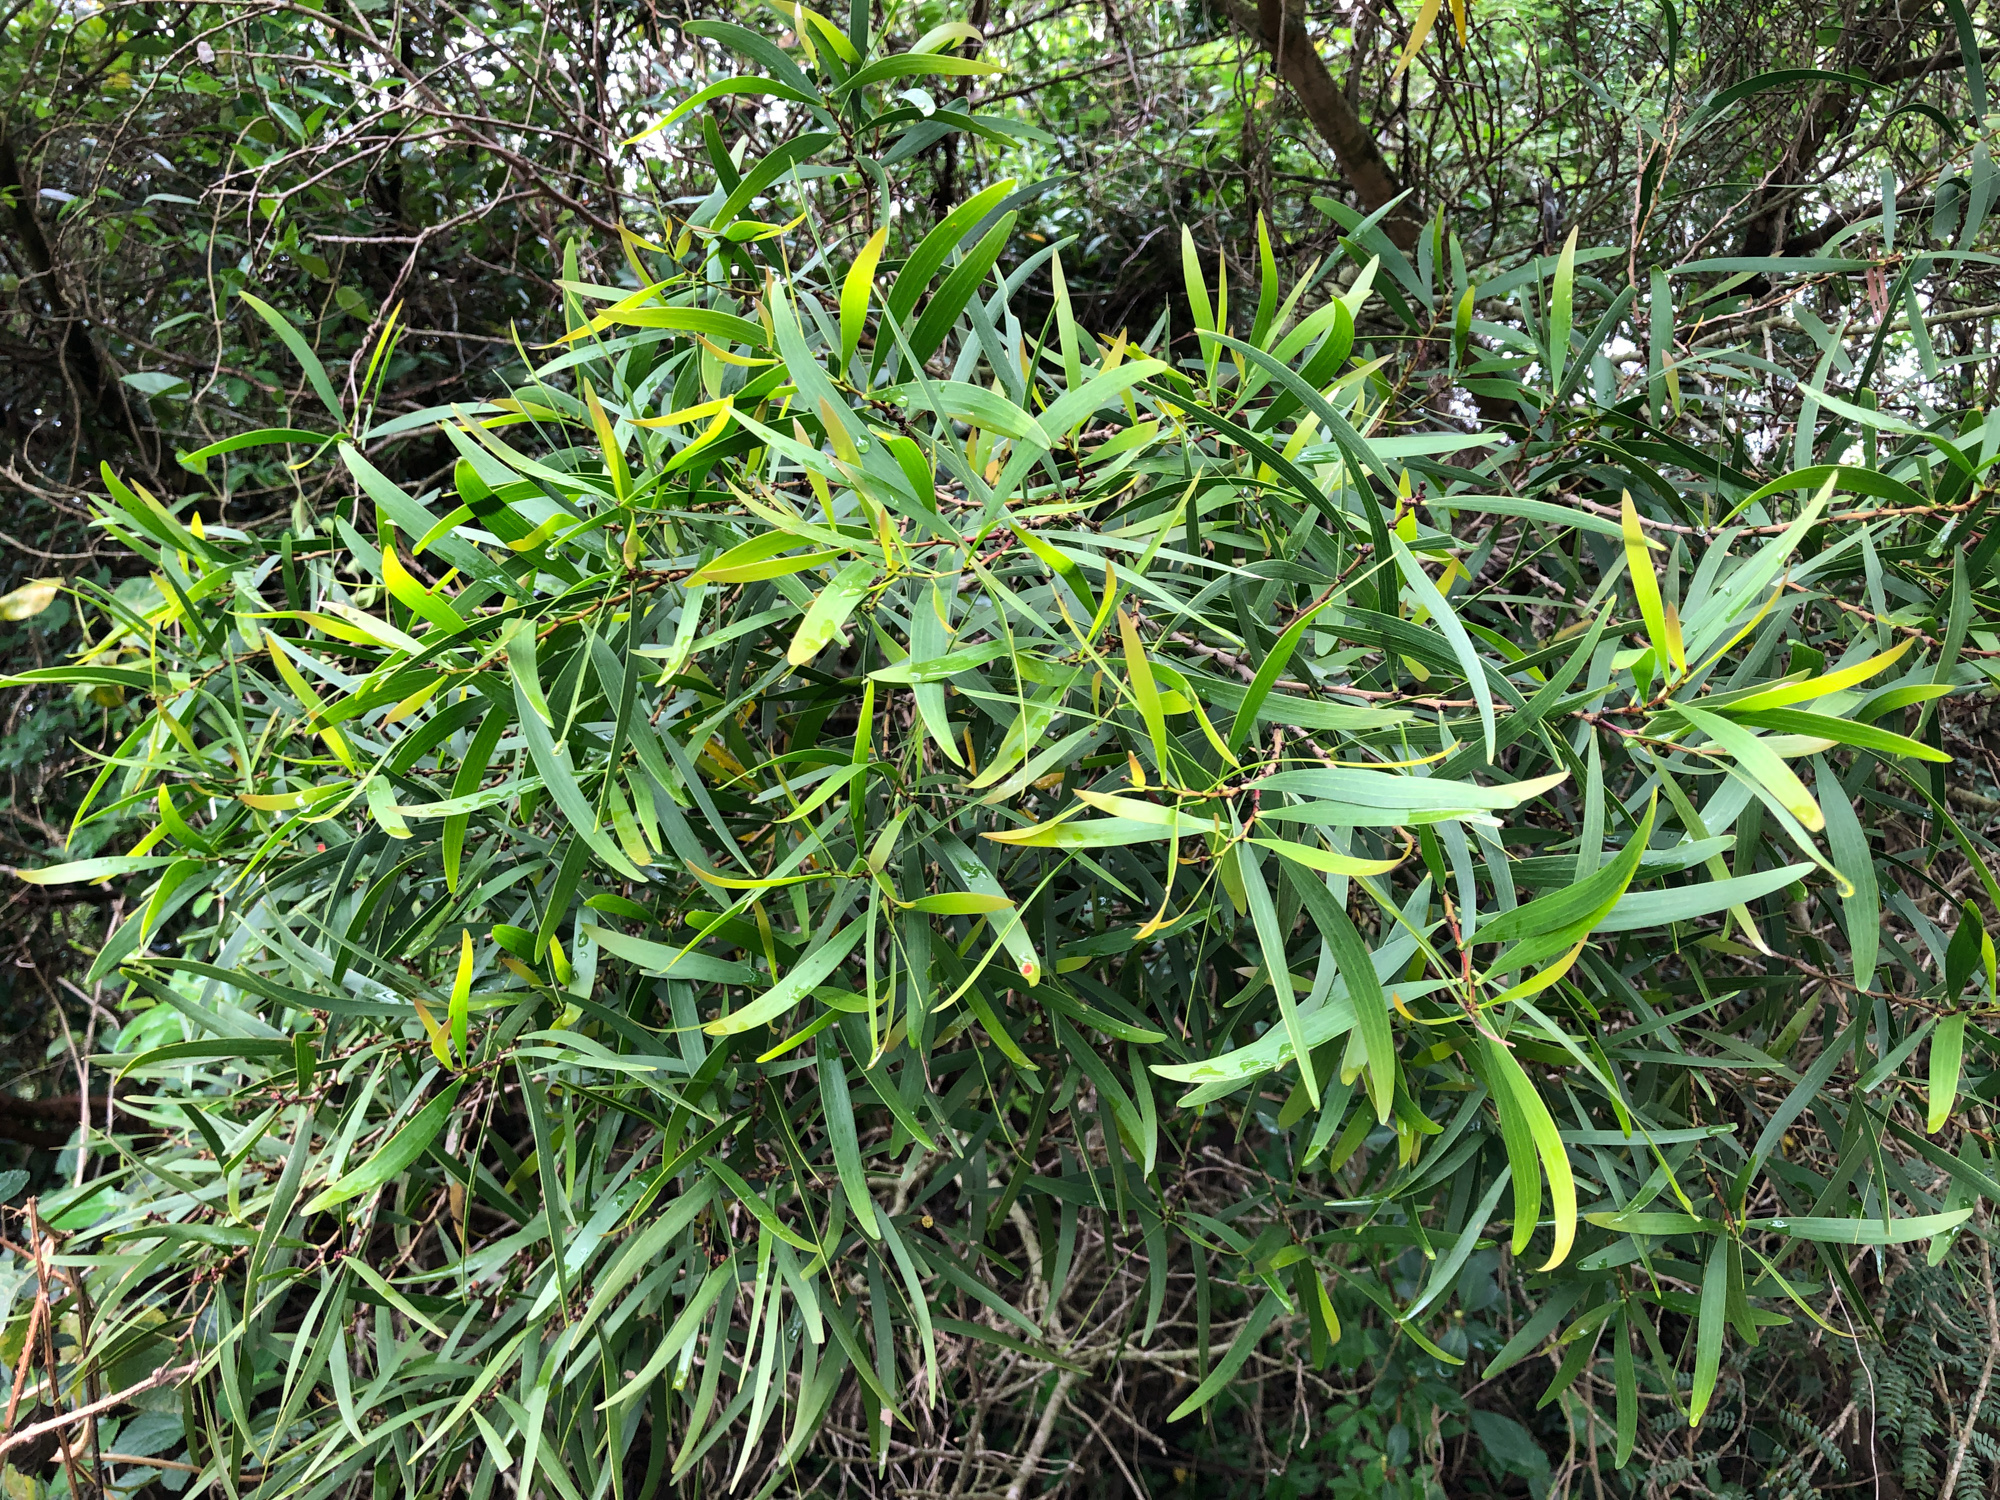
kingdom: Plantae
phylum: Tracheophyta
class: Magnoliopsida
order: Fabales
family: Fabaceae
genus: Acacia
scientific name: Acacia confusa
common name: Formosan koa
